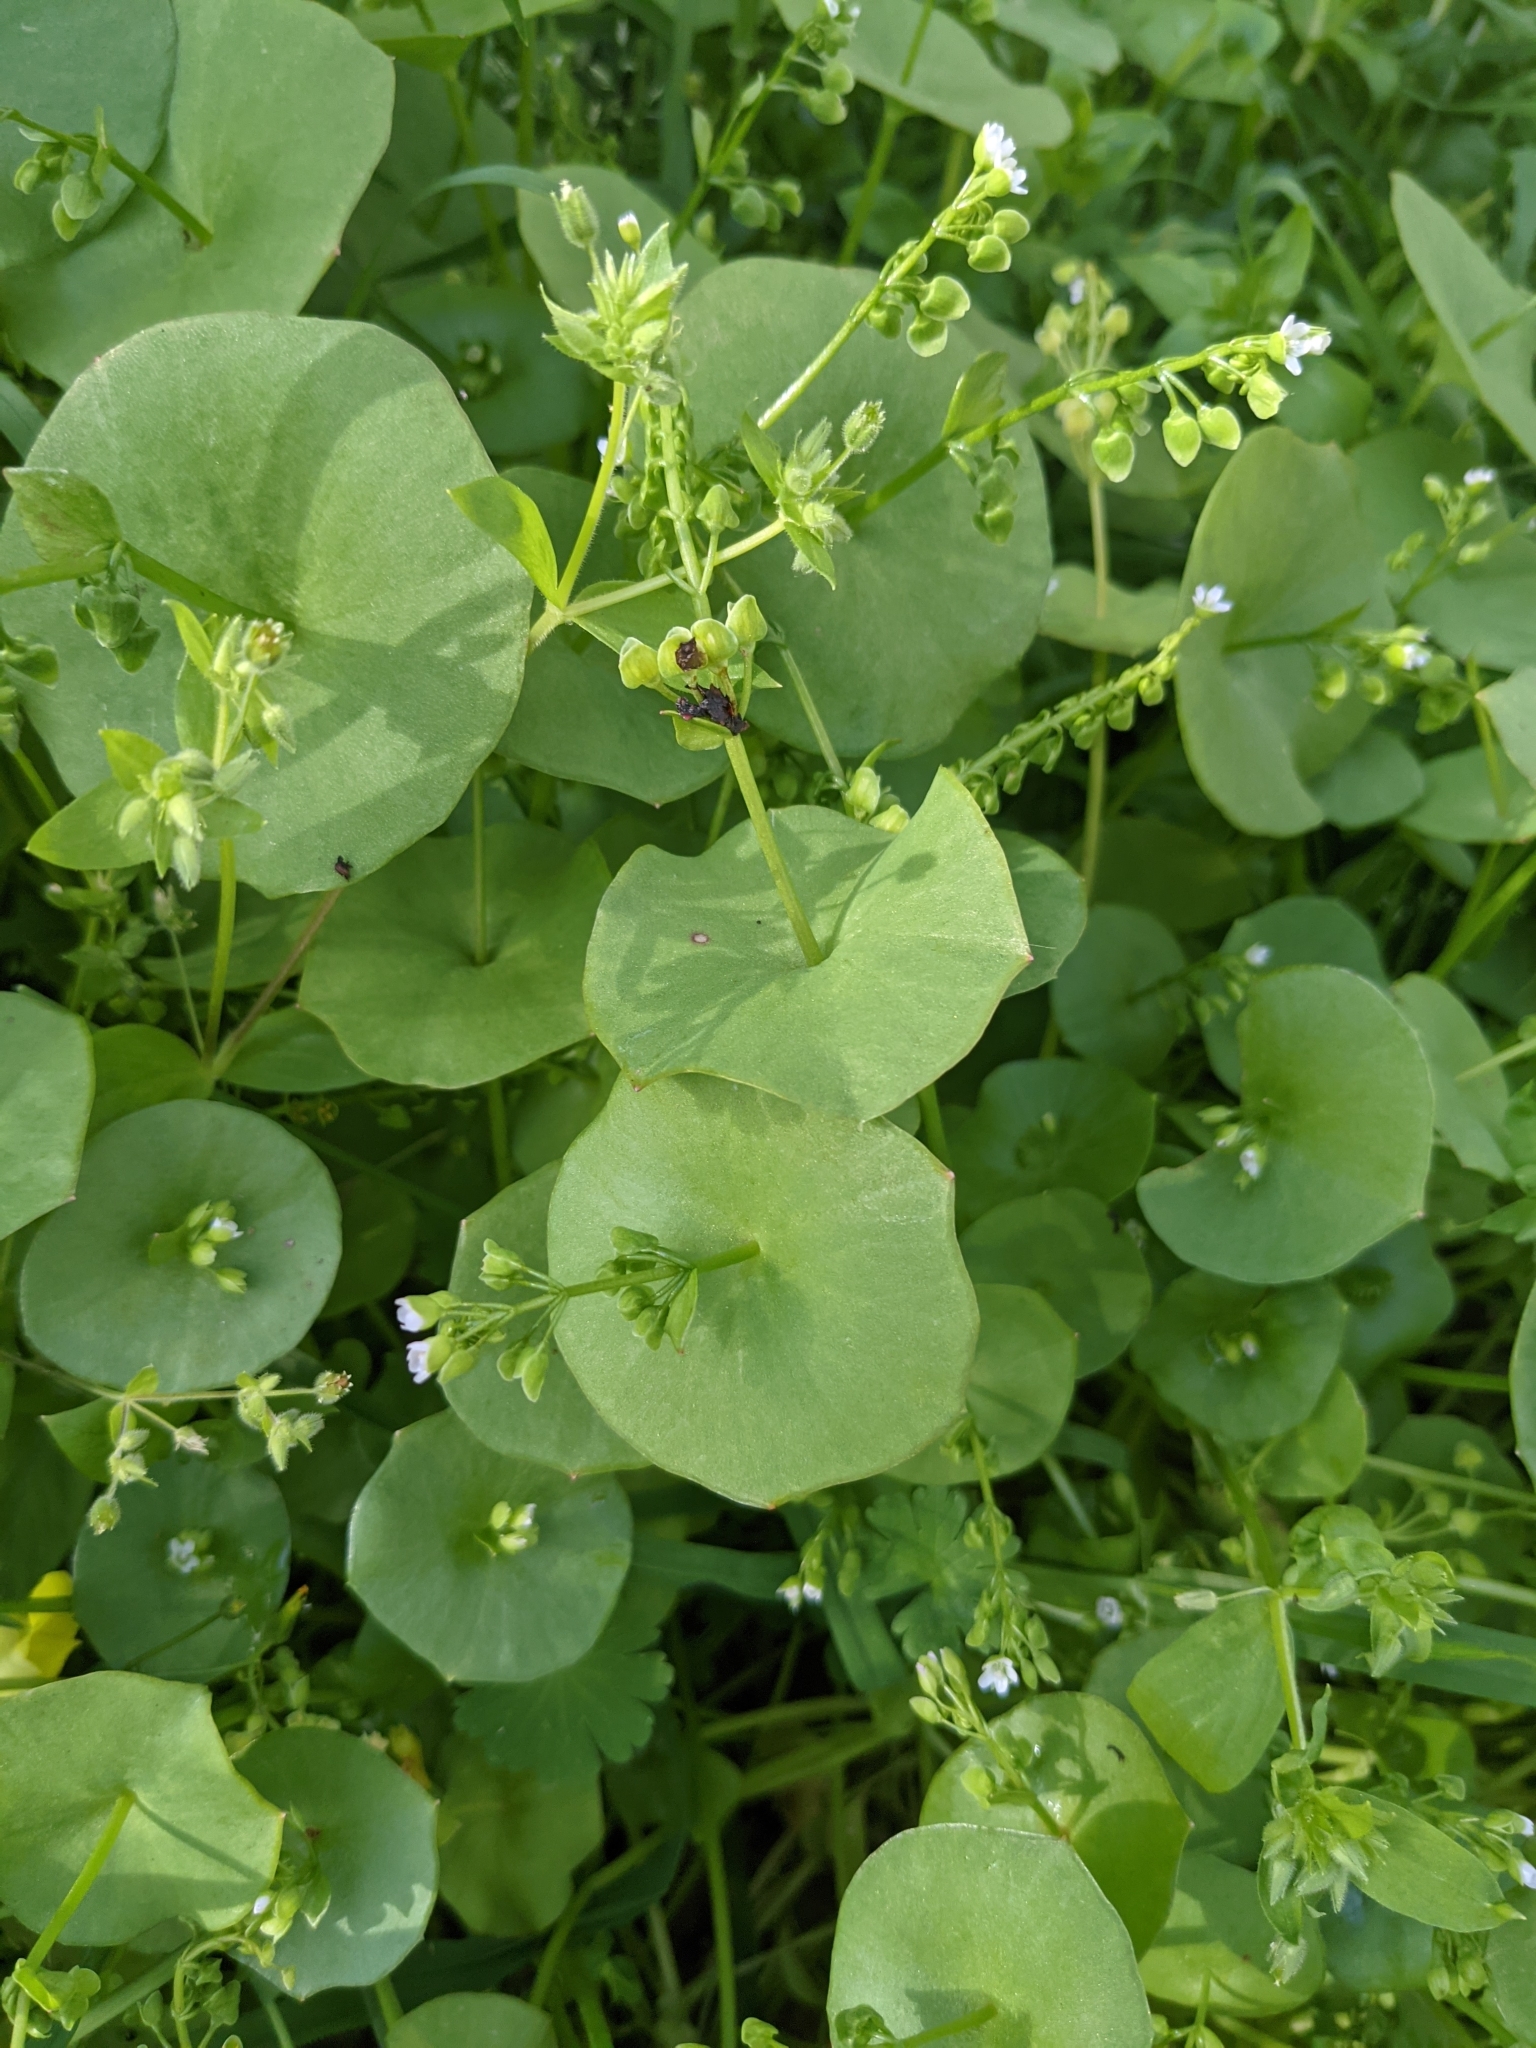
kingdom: Plantae
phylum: Tracheophyta
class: Magnoliopsida
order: Caryophyllales
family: Montiaceae
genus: Claytonia
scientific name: Claytonia perfoliata
